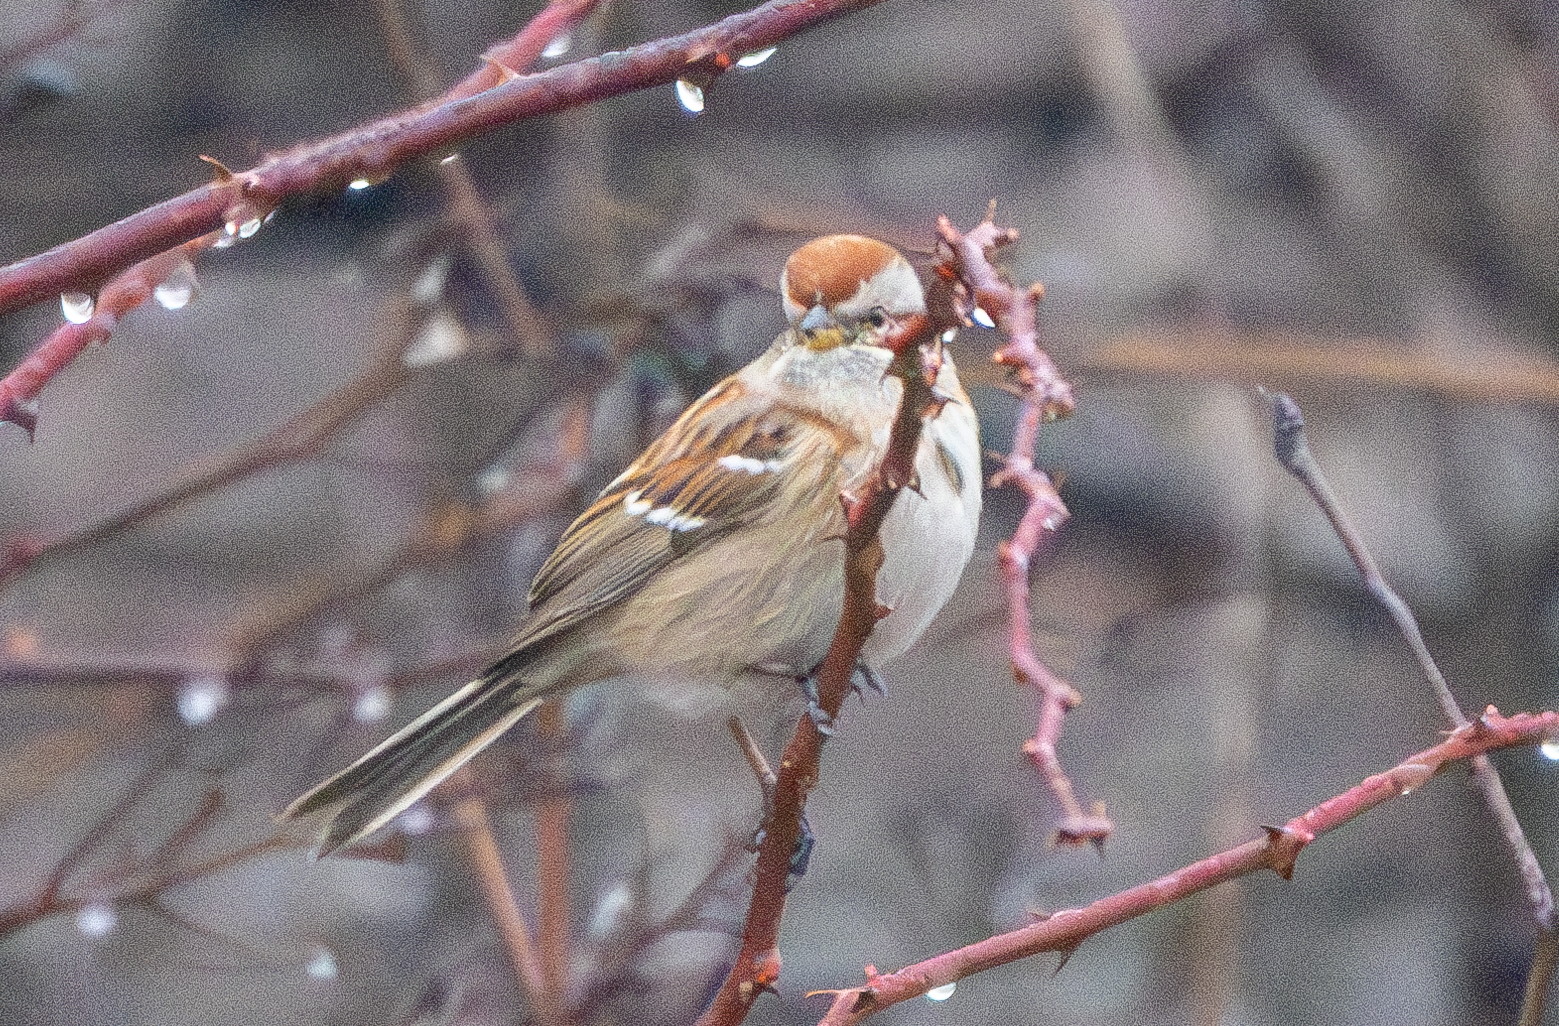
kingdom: Animalia
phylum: Chordata
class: Aves
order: Passeriformes
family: Passerellidae
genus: Spizelloides
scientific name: Spizelloides arborea
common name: American tree sparrow
